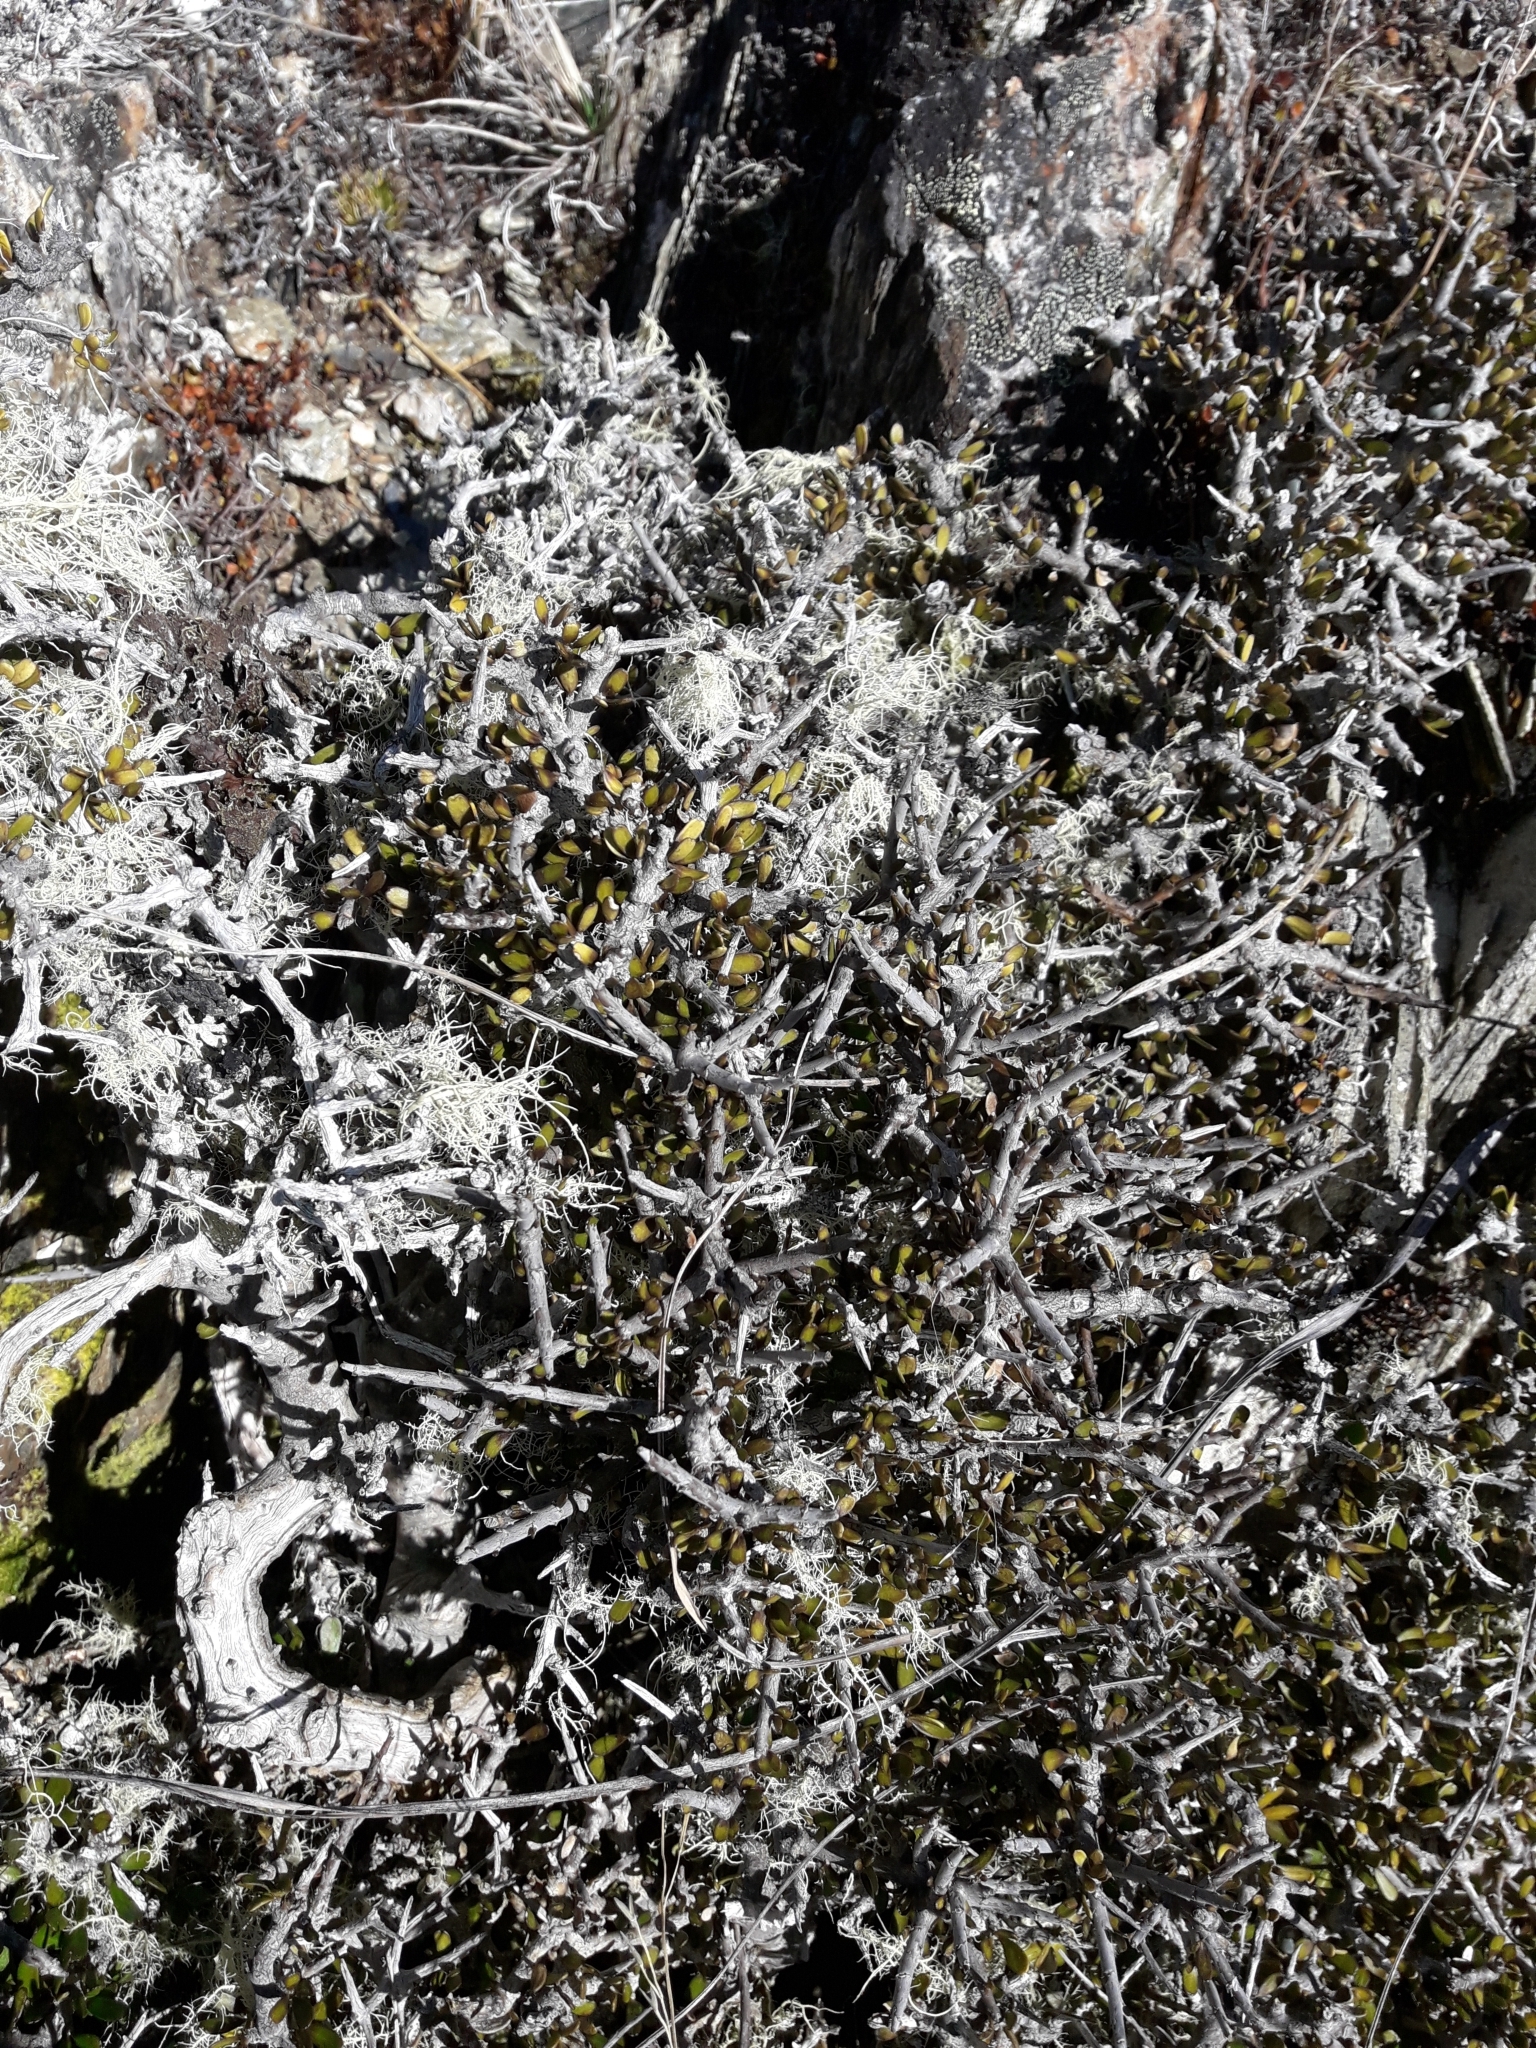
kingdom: Plantae
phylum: Tracheophyta
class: Magnoliopsida
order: Malpighiales
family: Violaceae
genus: Melicytus
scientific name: Melicytus alpinus
